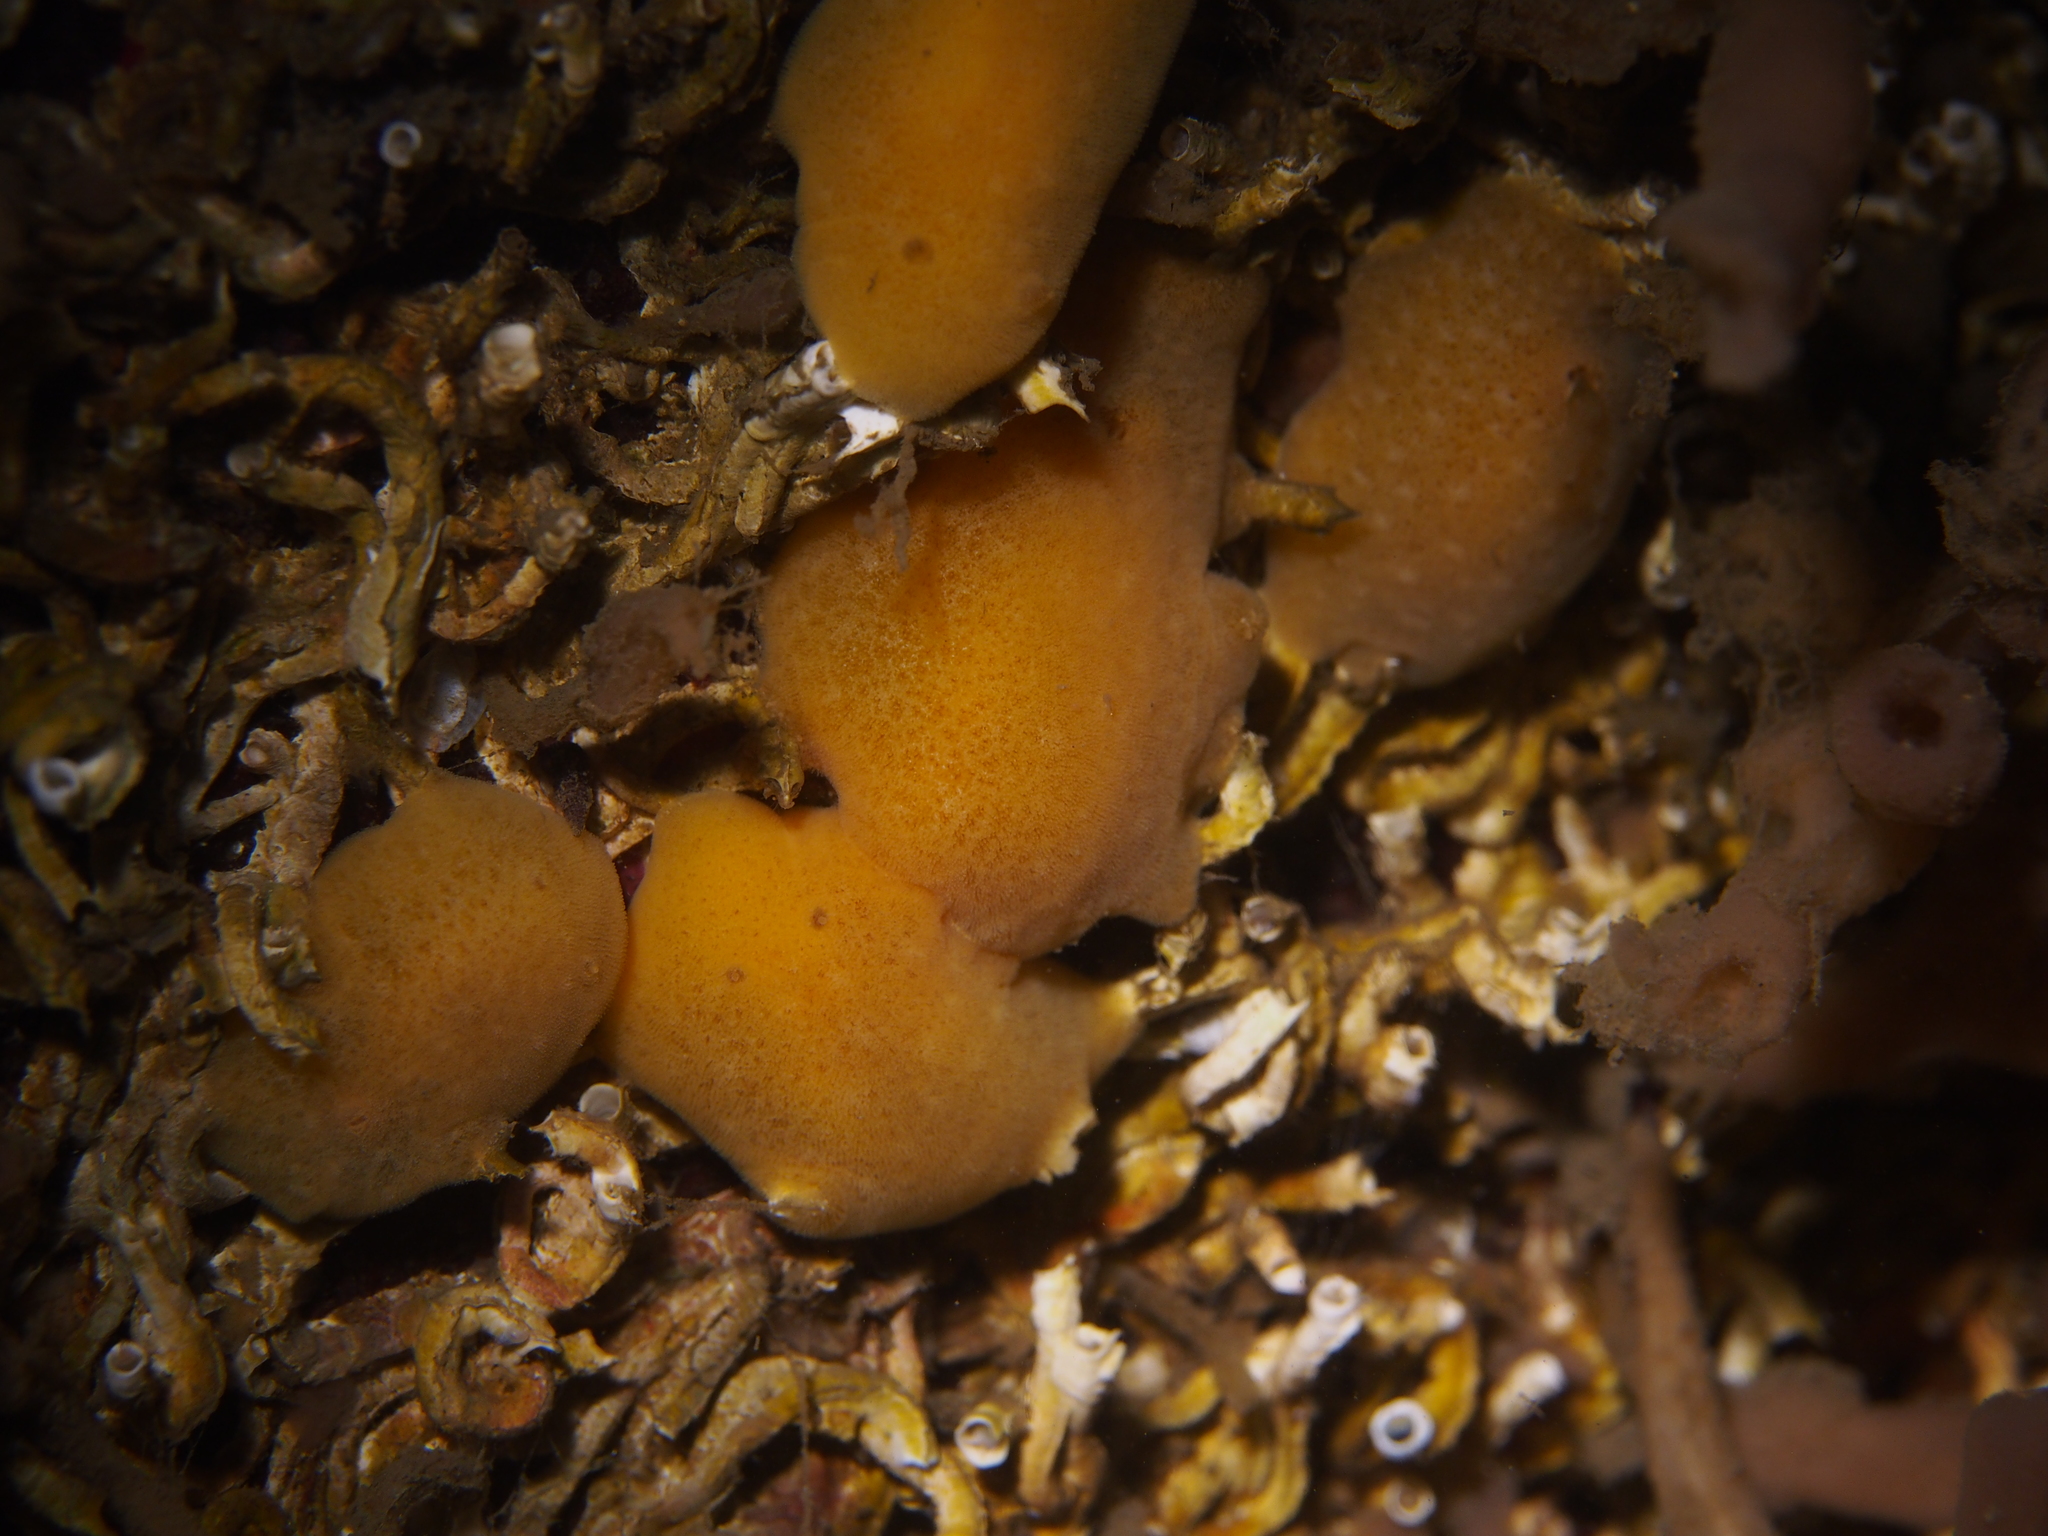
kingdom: Animalia
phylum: Mollusca
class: Gastropoda
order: Nudibranchia
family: Discodorididae
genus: Jorunna
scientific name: Jorunna tomentosa
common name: Grey sea slug
